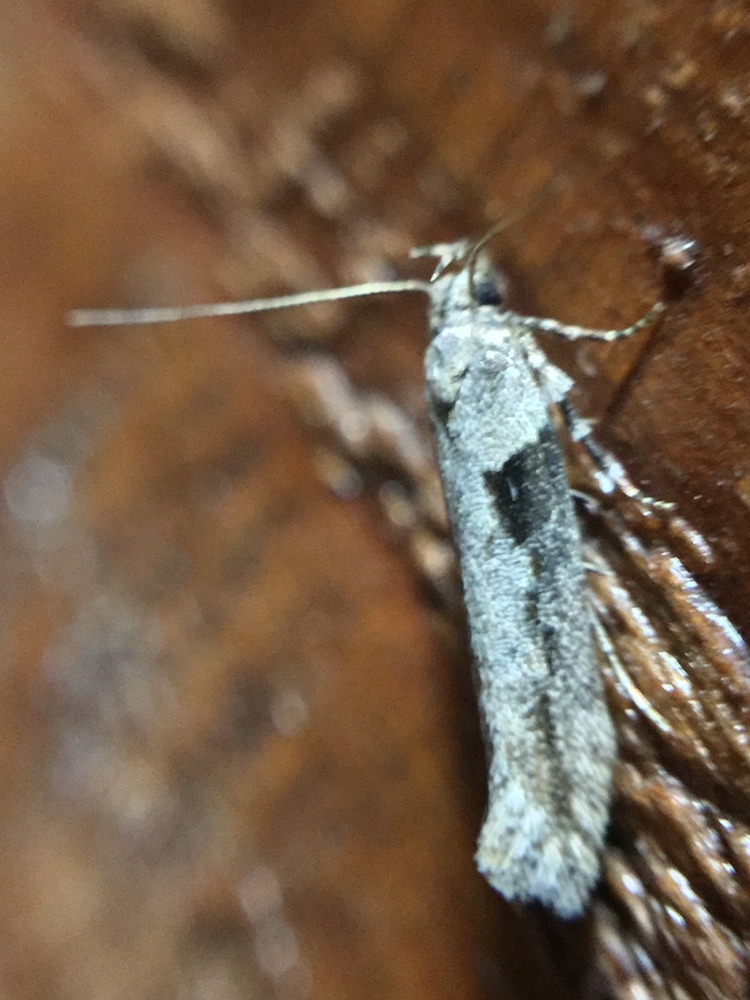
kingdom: Animalia
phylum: Arthropoda
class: Insecta
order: Lepidoptera
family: Gelechiidae
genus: Symmetrischema
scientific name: Symmetrischema tangolias
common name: Moth
